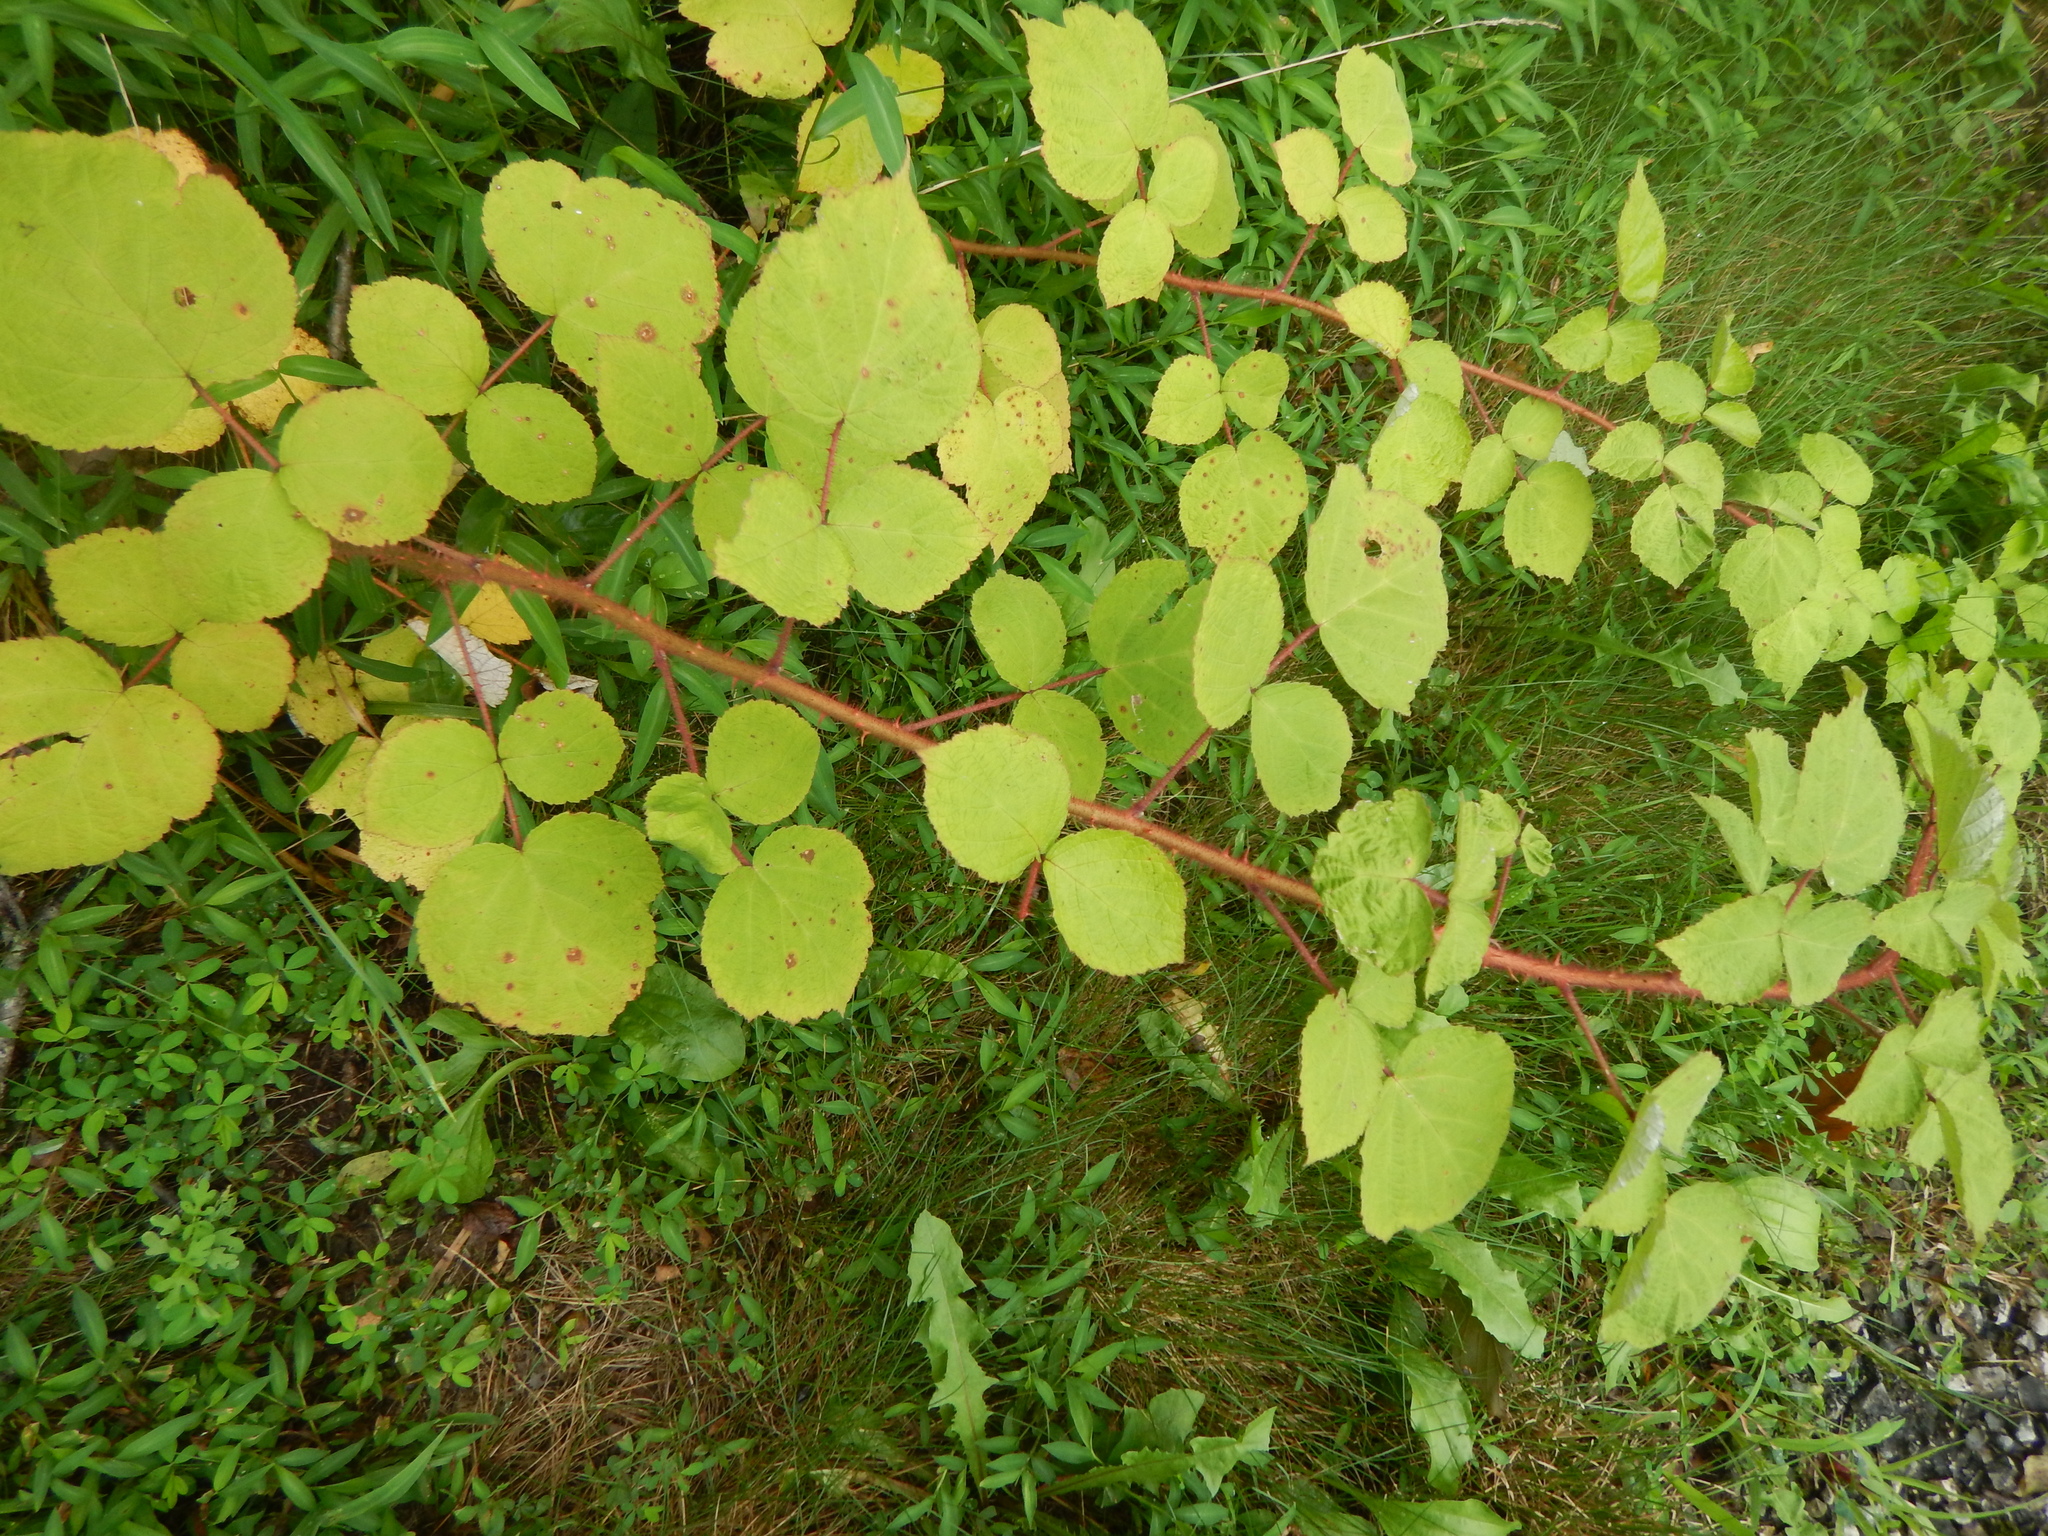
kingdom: Plantae
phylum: Tracheophyta
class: Magnoliopsida
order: Rosales
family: Rosaceae
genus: Rubus
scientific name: Rubus phoenicolasius
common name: Japanese wineberry
